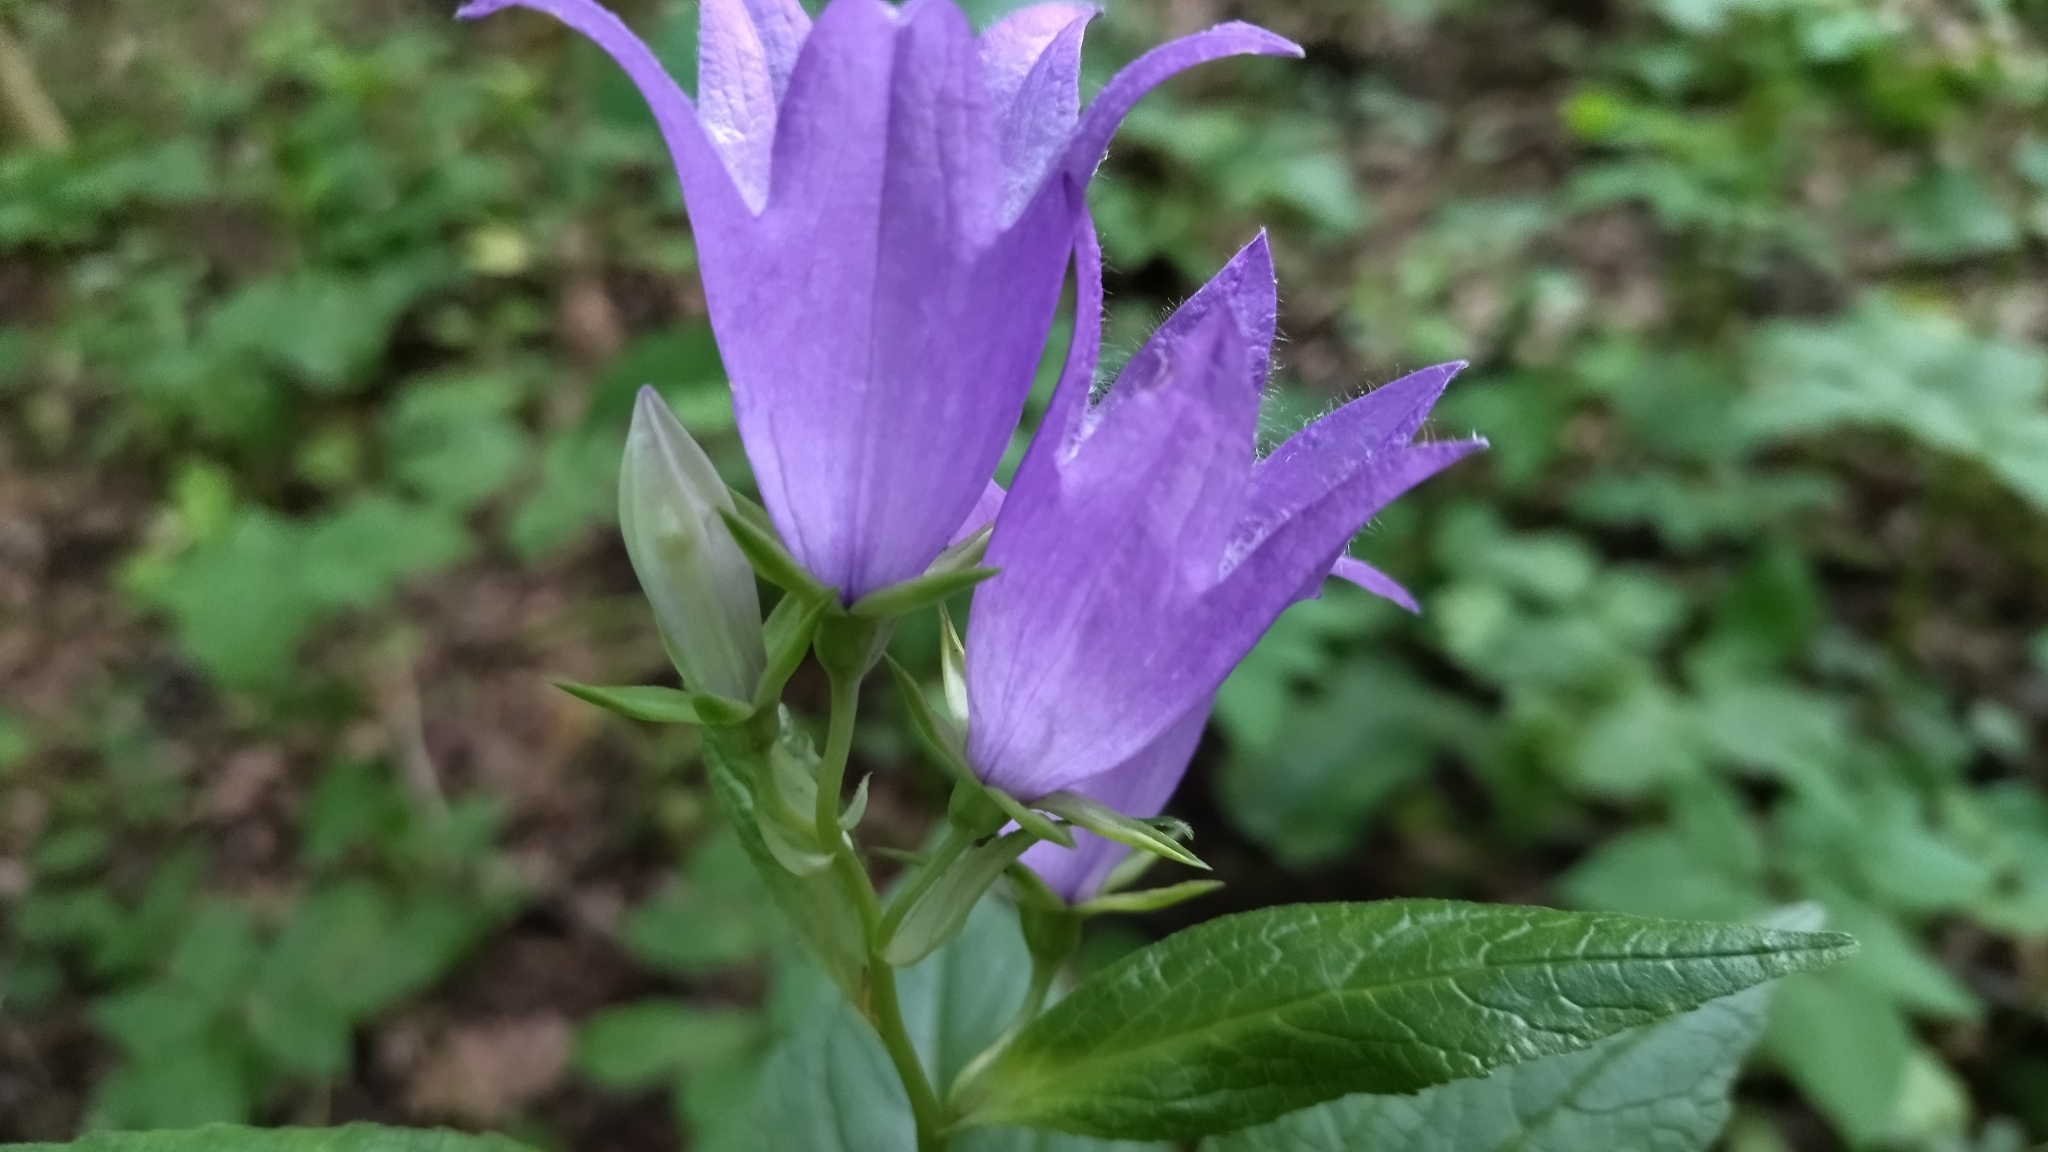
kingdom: Plantae
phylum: Tracheophyta
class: Magnoliopsida
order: Asterales
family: Campanulaceae
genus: Campanula
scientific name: Campanula latifolia
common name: Giant bellflower
